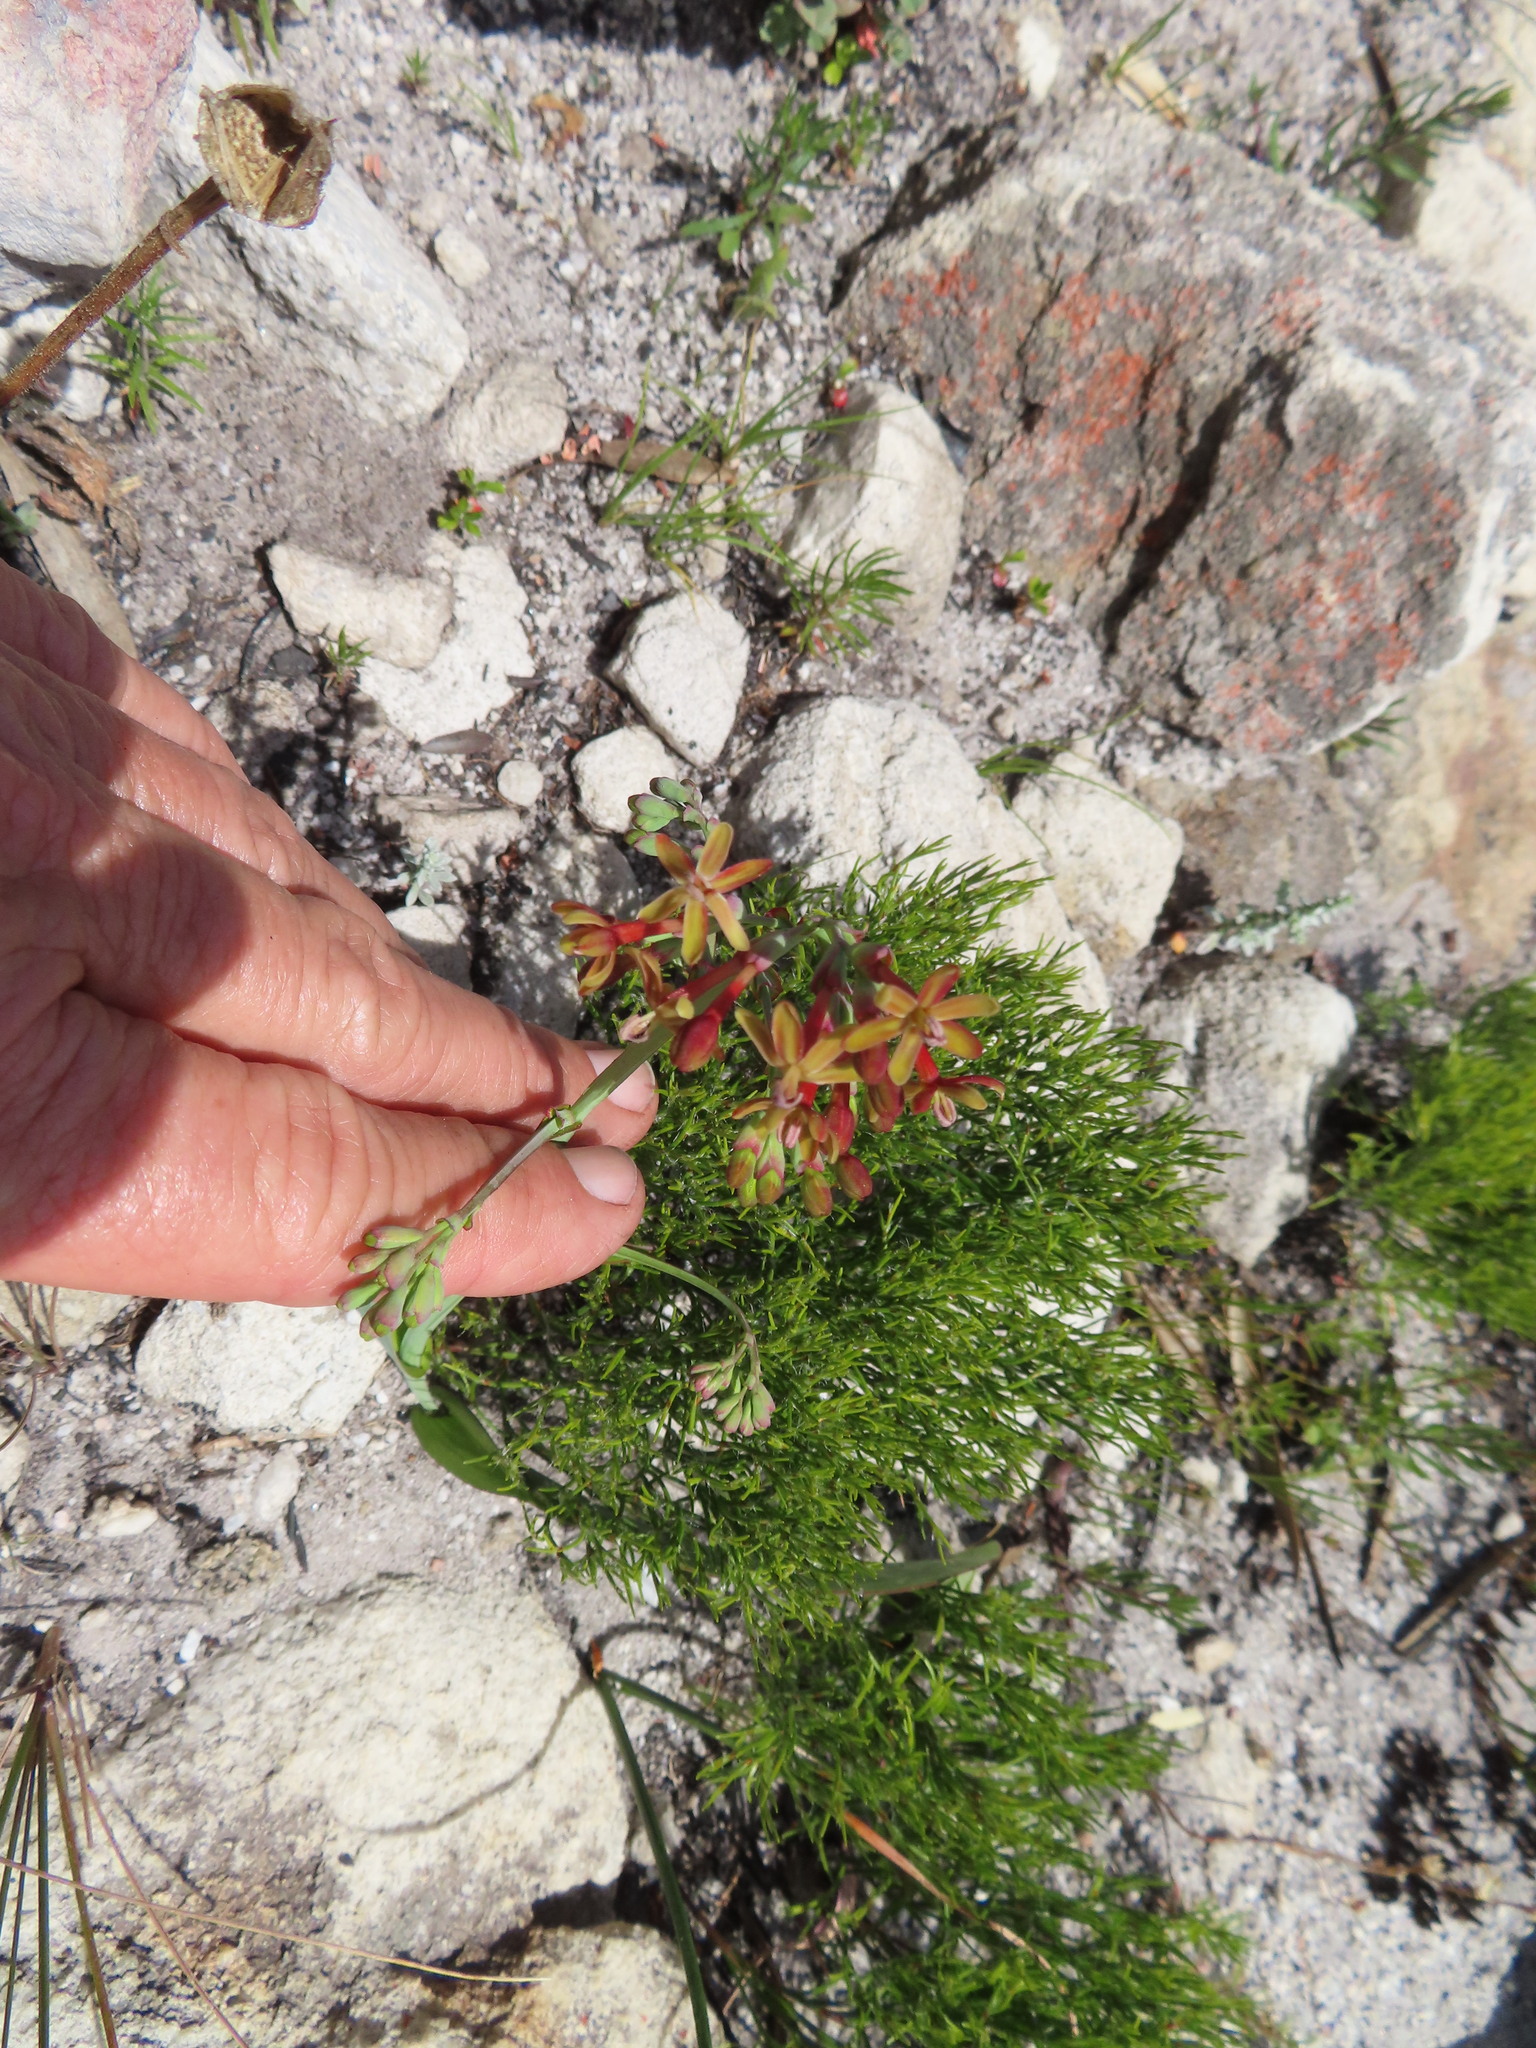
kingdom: Plantae
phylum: Tracheophyta
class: Liliopsida
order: Asparagales
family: Iridaceae
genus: Codonorhiza
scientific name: Codonorhiza micrantha
